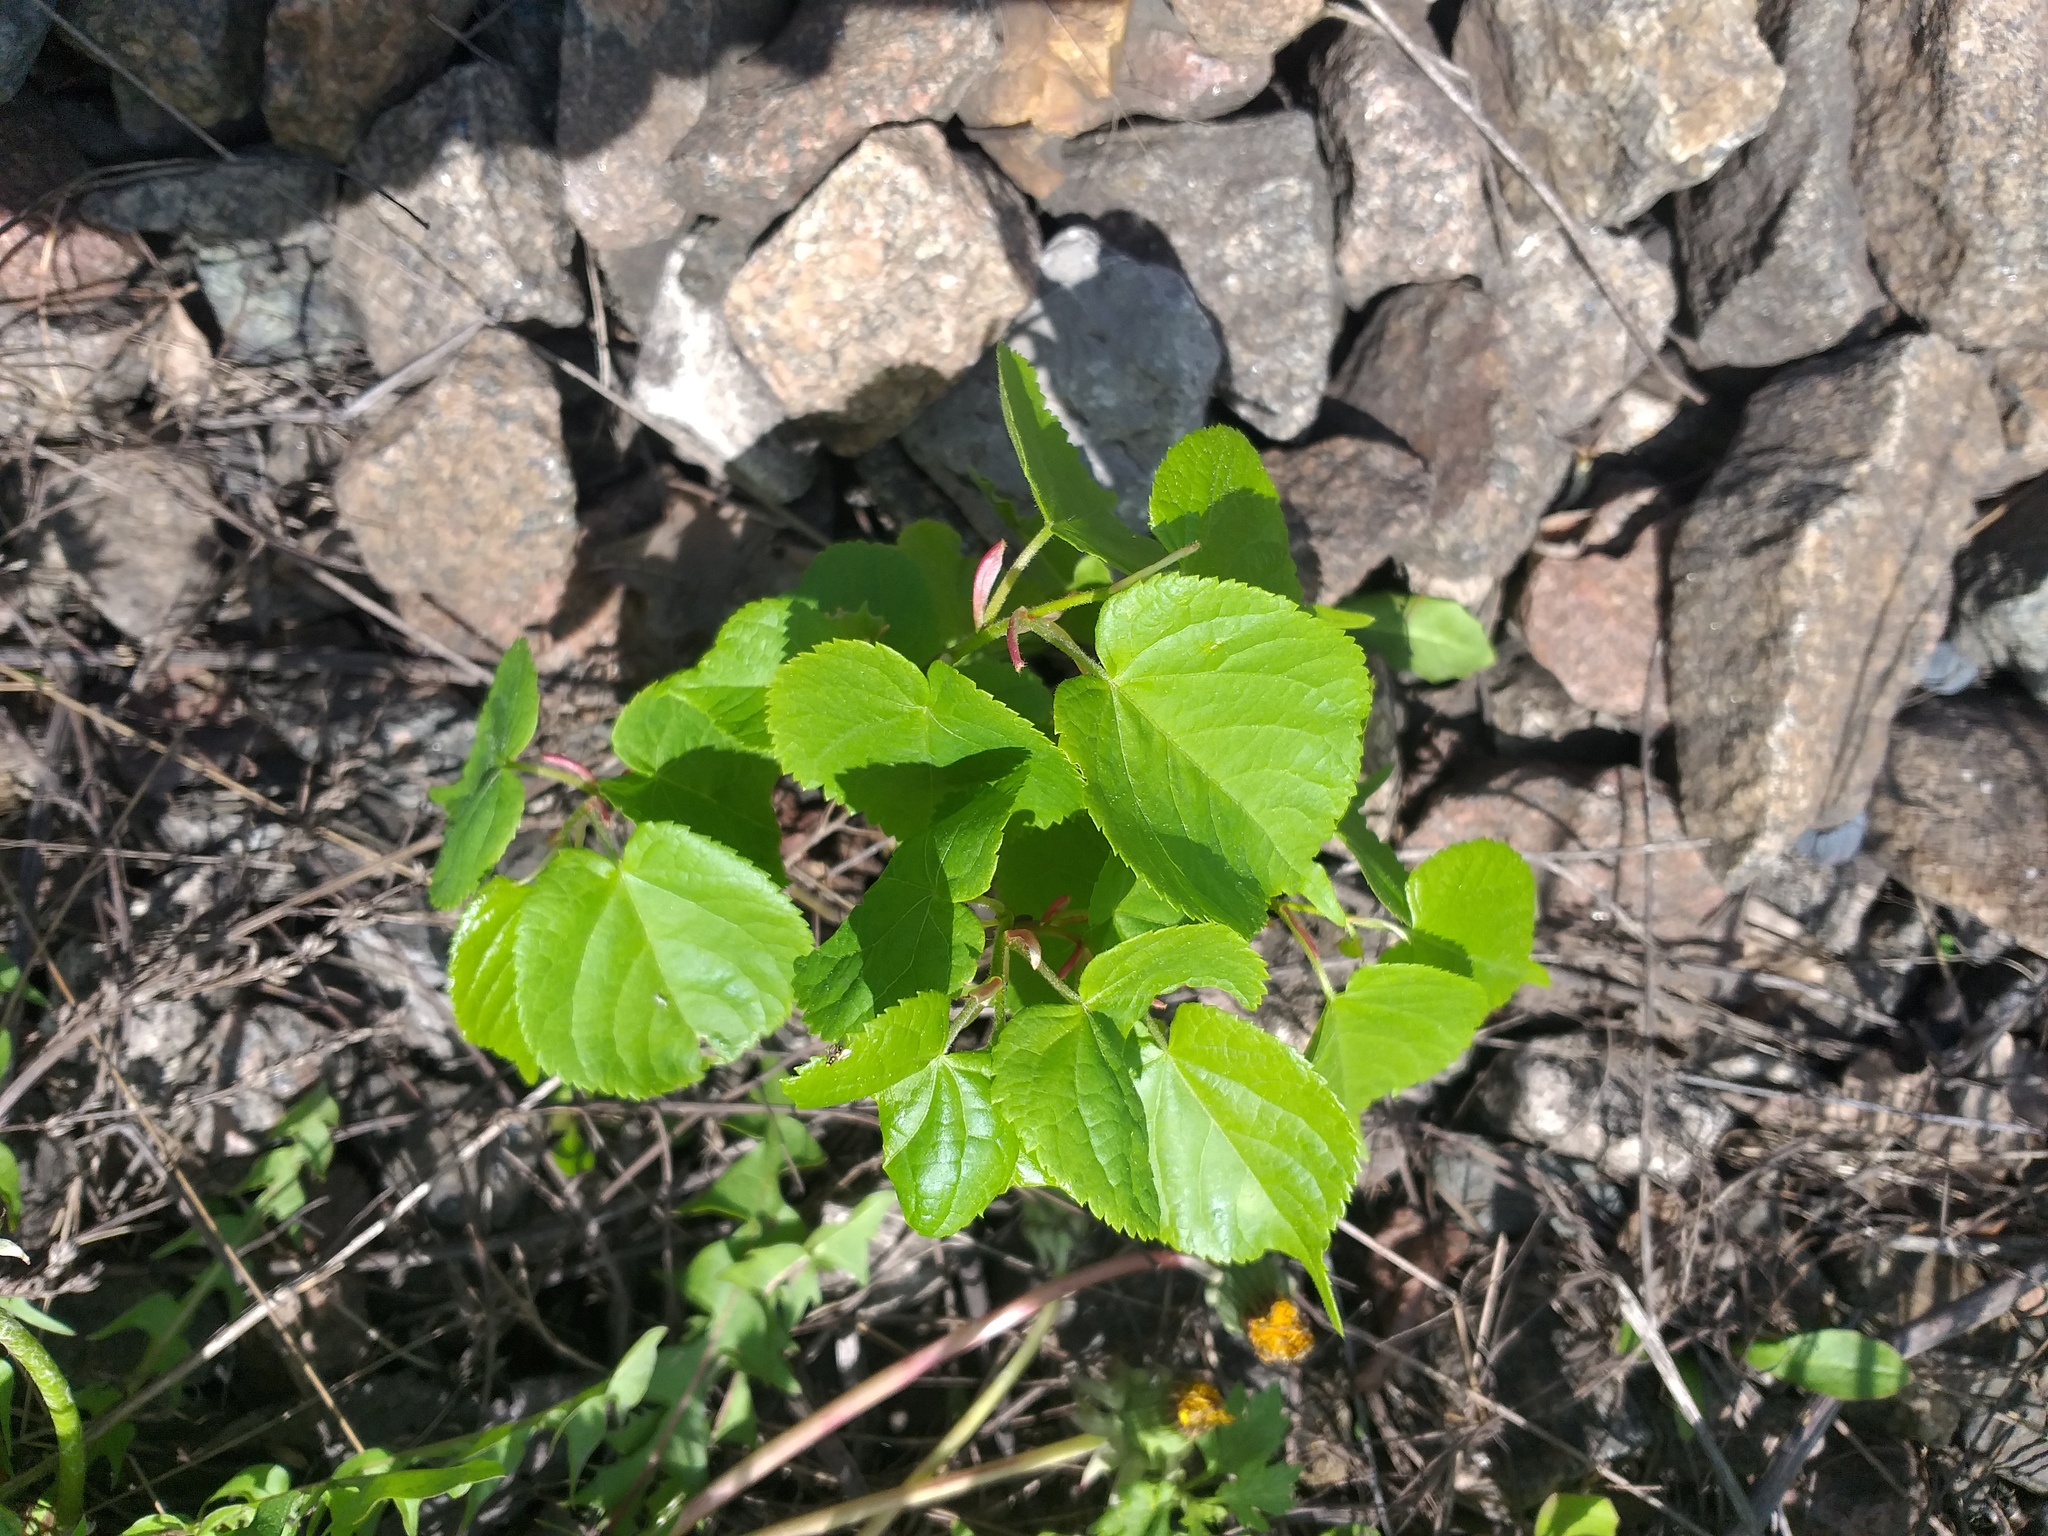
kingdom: Plantae
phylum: Tracheophyta
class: Magnoliopsida
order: Malvales
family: Malvaceae
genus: Tilia
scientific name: Tilia cordata
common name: Small-leaved lime
